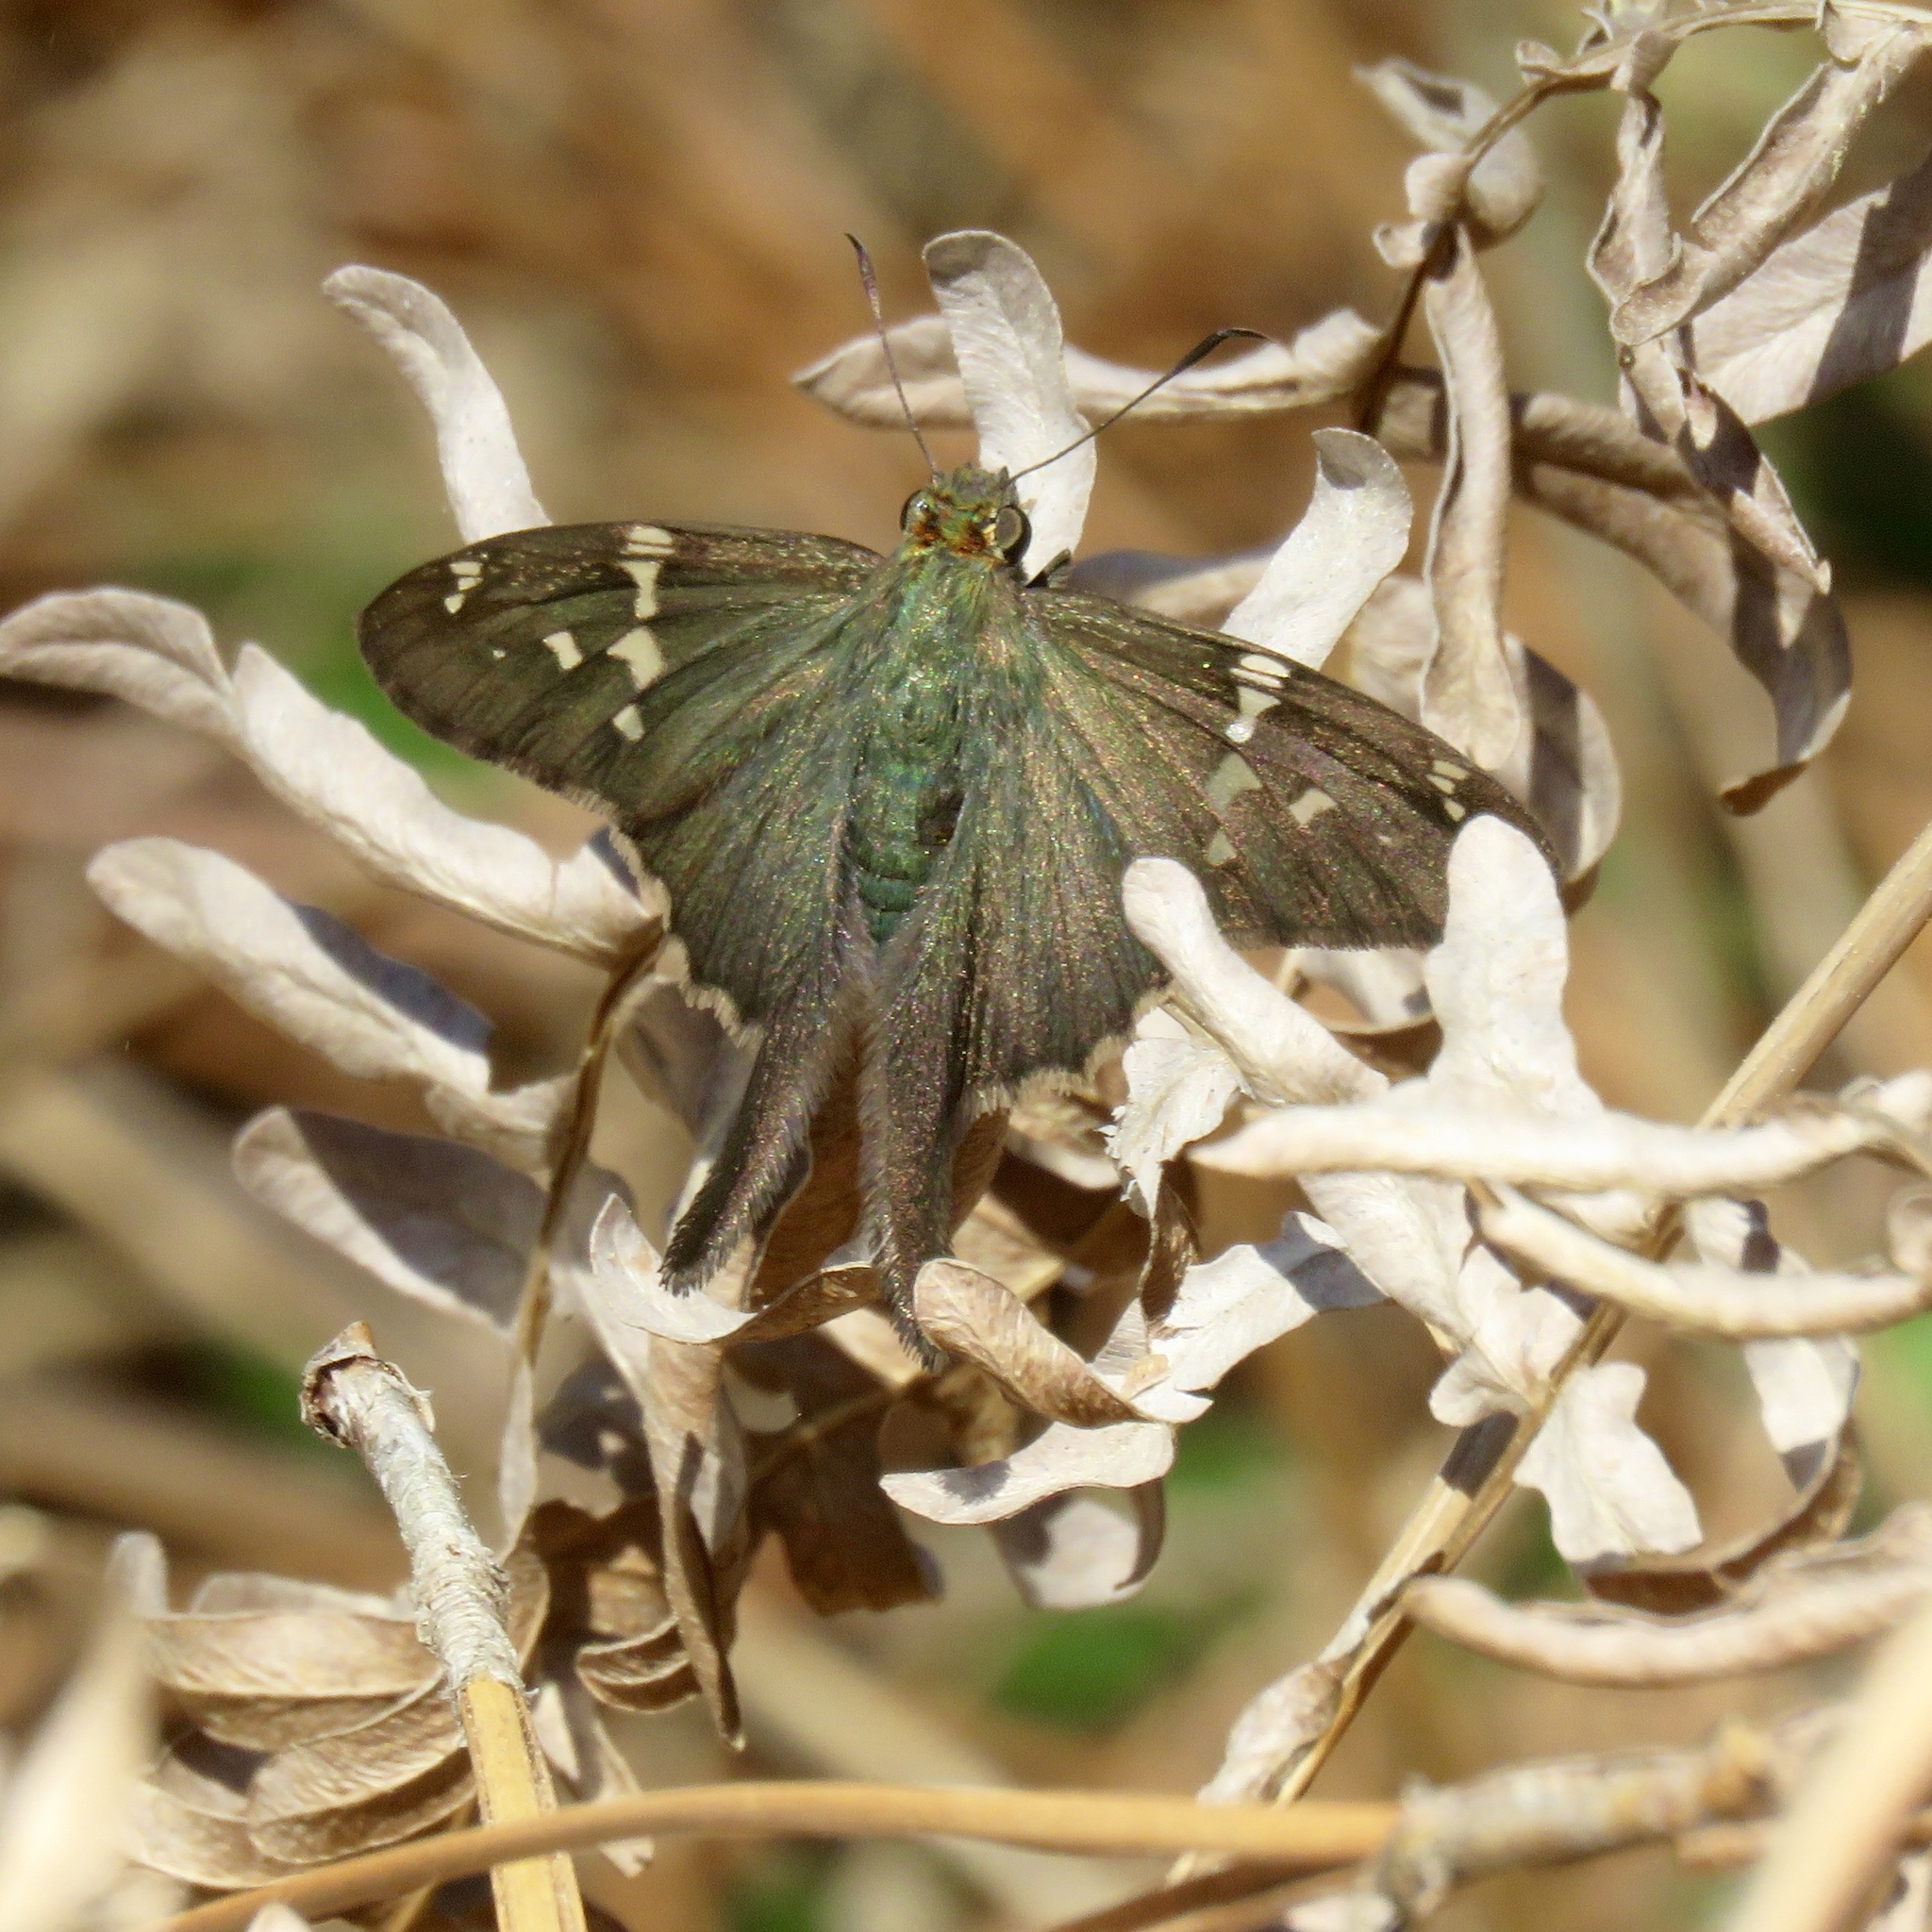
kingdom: Animalia
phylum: Arthropoda
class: Insecta
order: Lepidoptera
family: Hesperiidae
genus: Urbanus
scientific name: Urbanus proteus
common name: Long-tailed skipper
